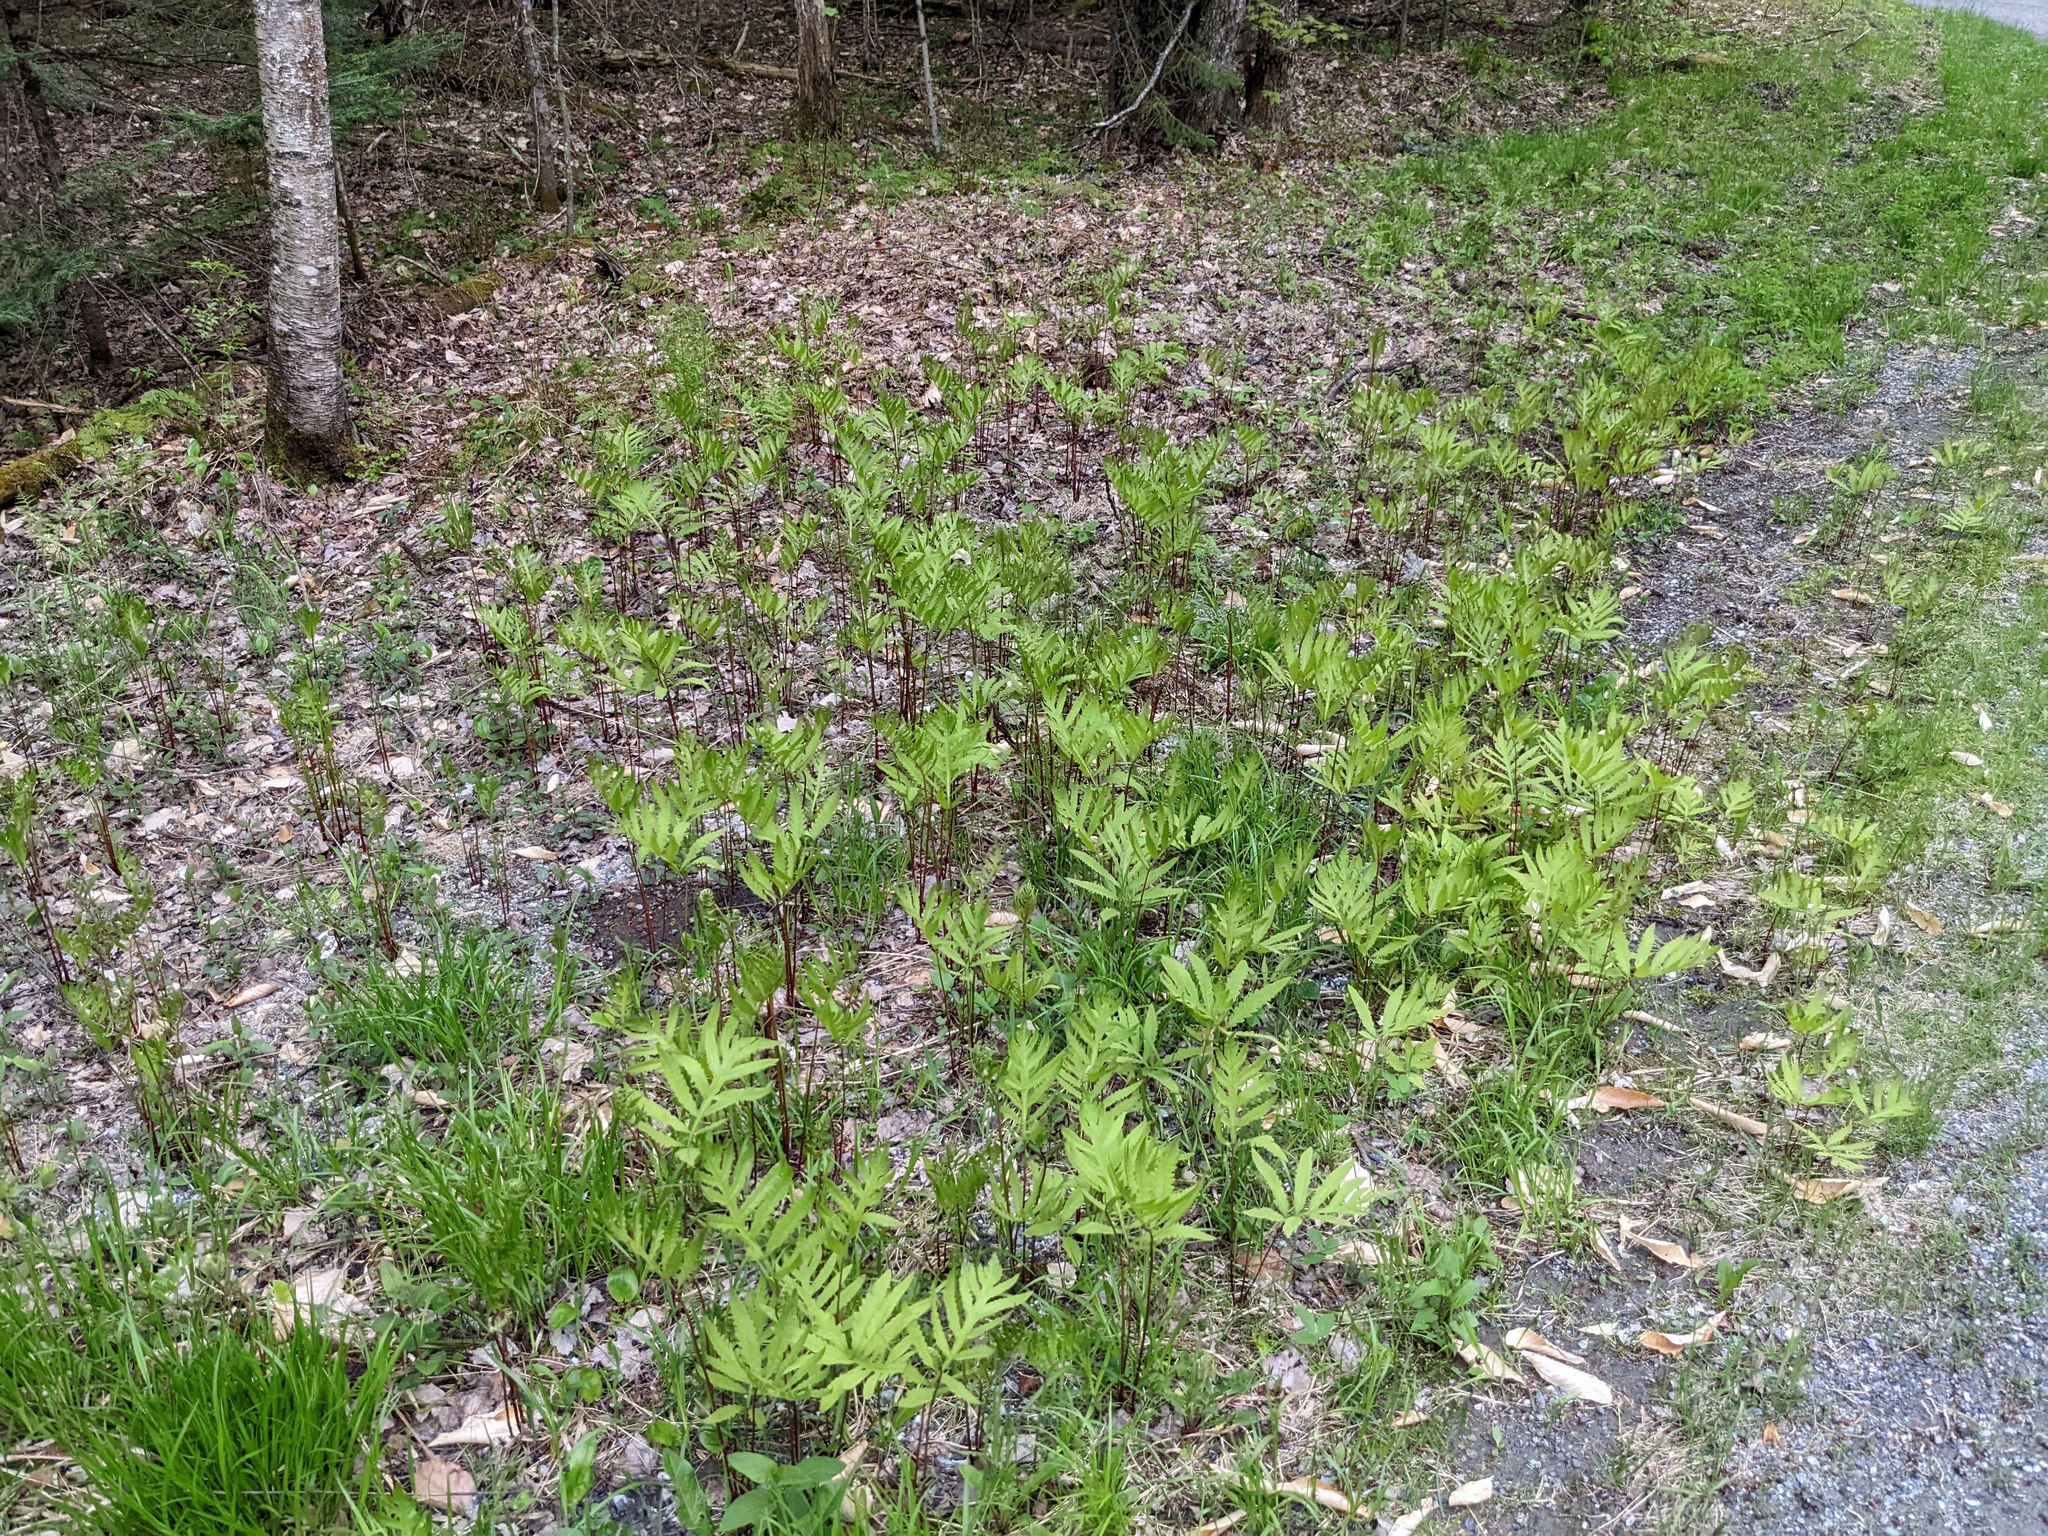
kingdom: Plantae
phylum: Tracheophyta
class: Polypodiopsida
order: Polypodiales
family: Onocleaceae
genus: Onoclea
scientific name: Onoclea sensibilis
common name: Sensitive fern
